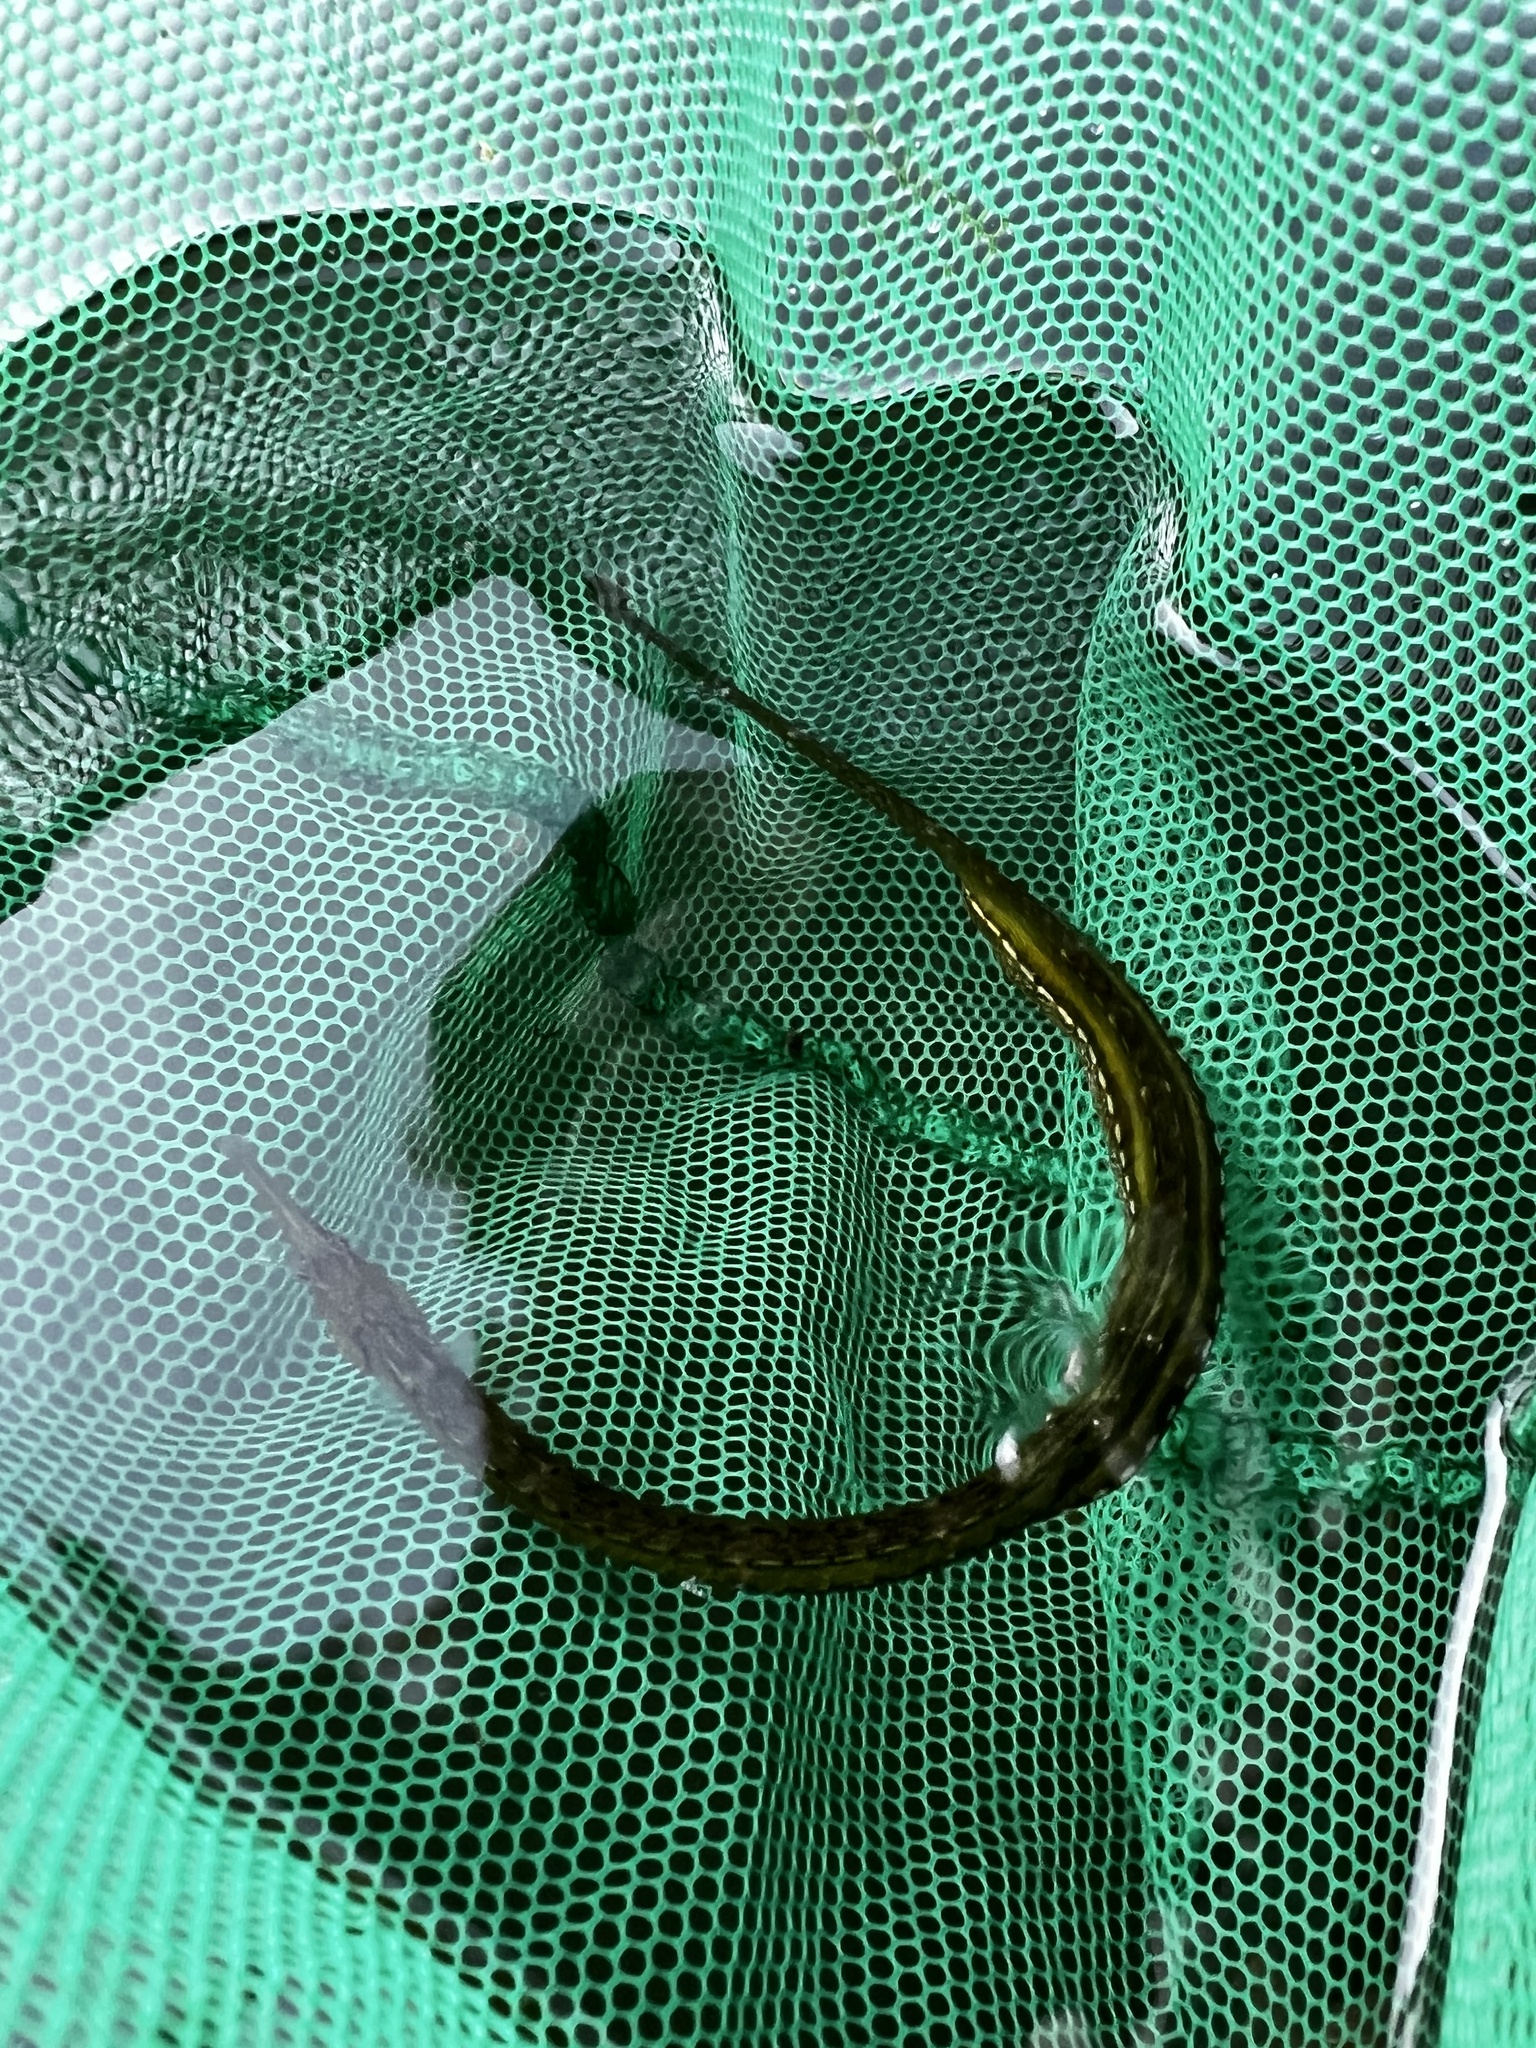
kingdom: Animalia
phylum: Chordata
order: Syngnathiformes
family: Syngnathidae
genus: Syngnathus
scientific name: Syngnathus californiensis
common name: Great pipefish
